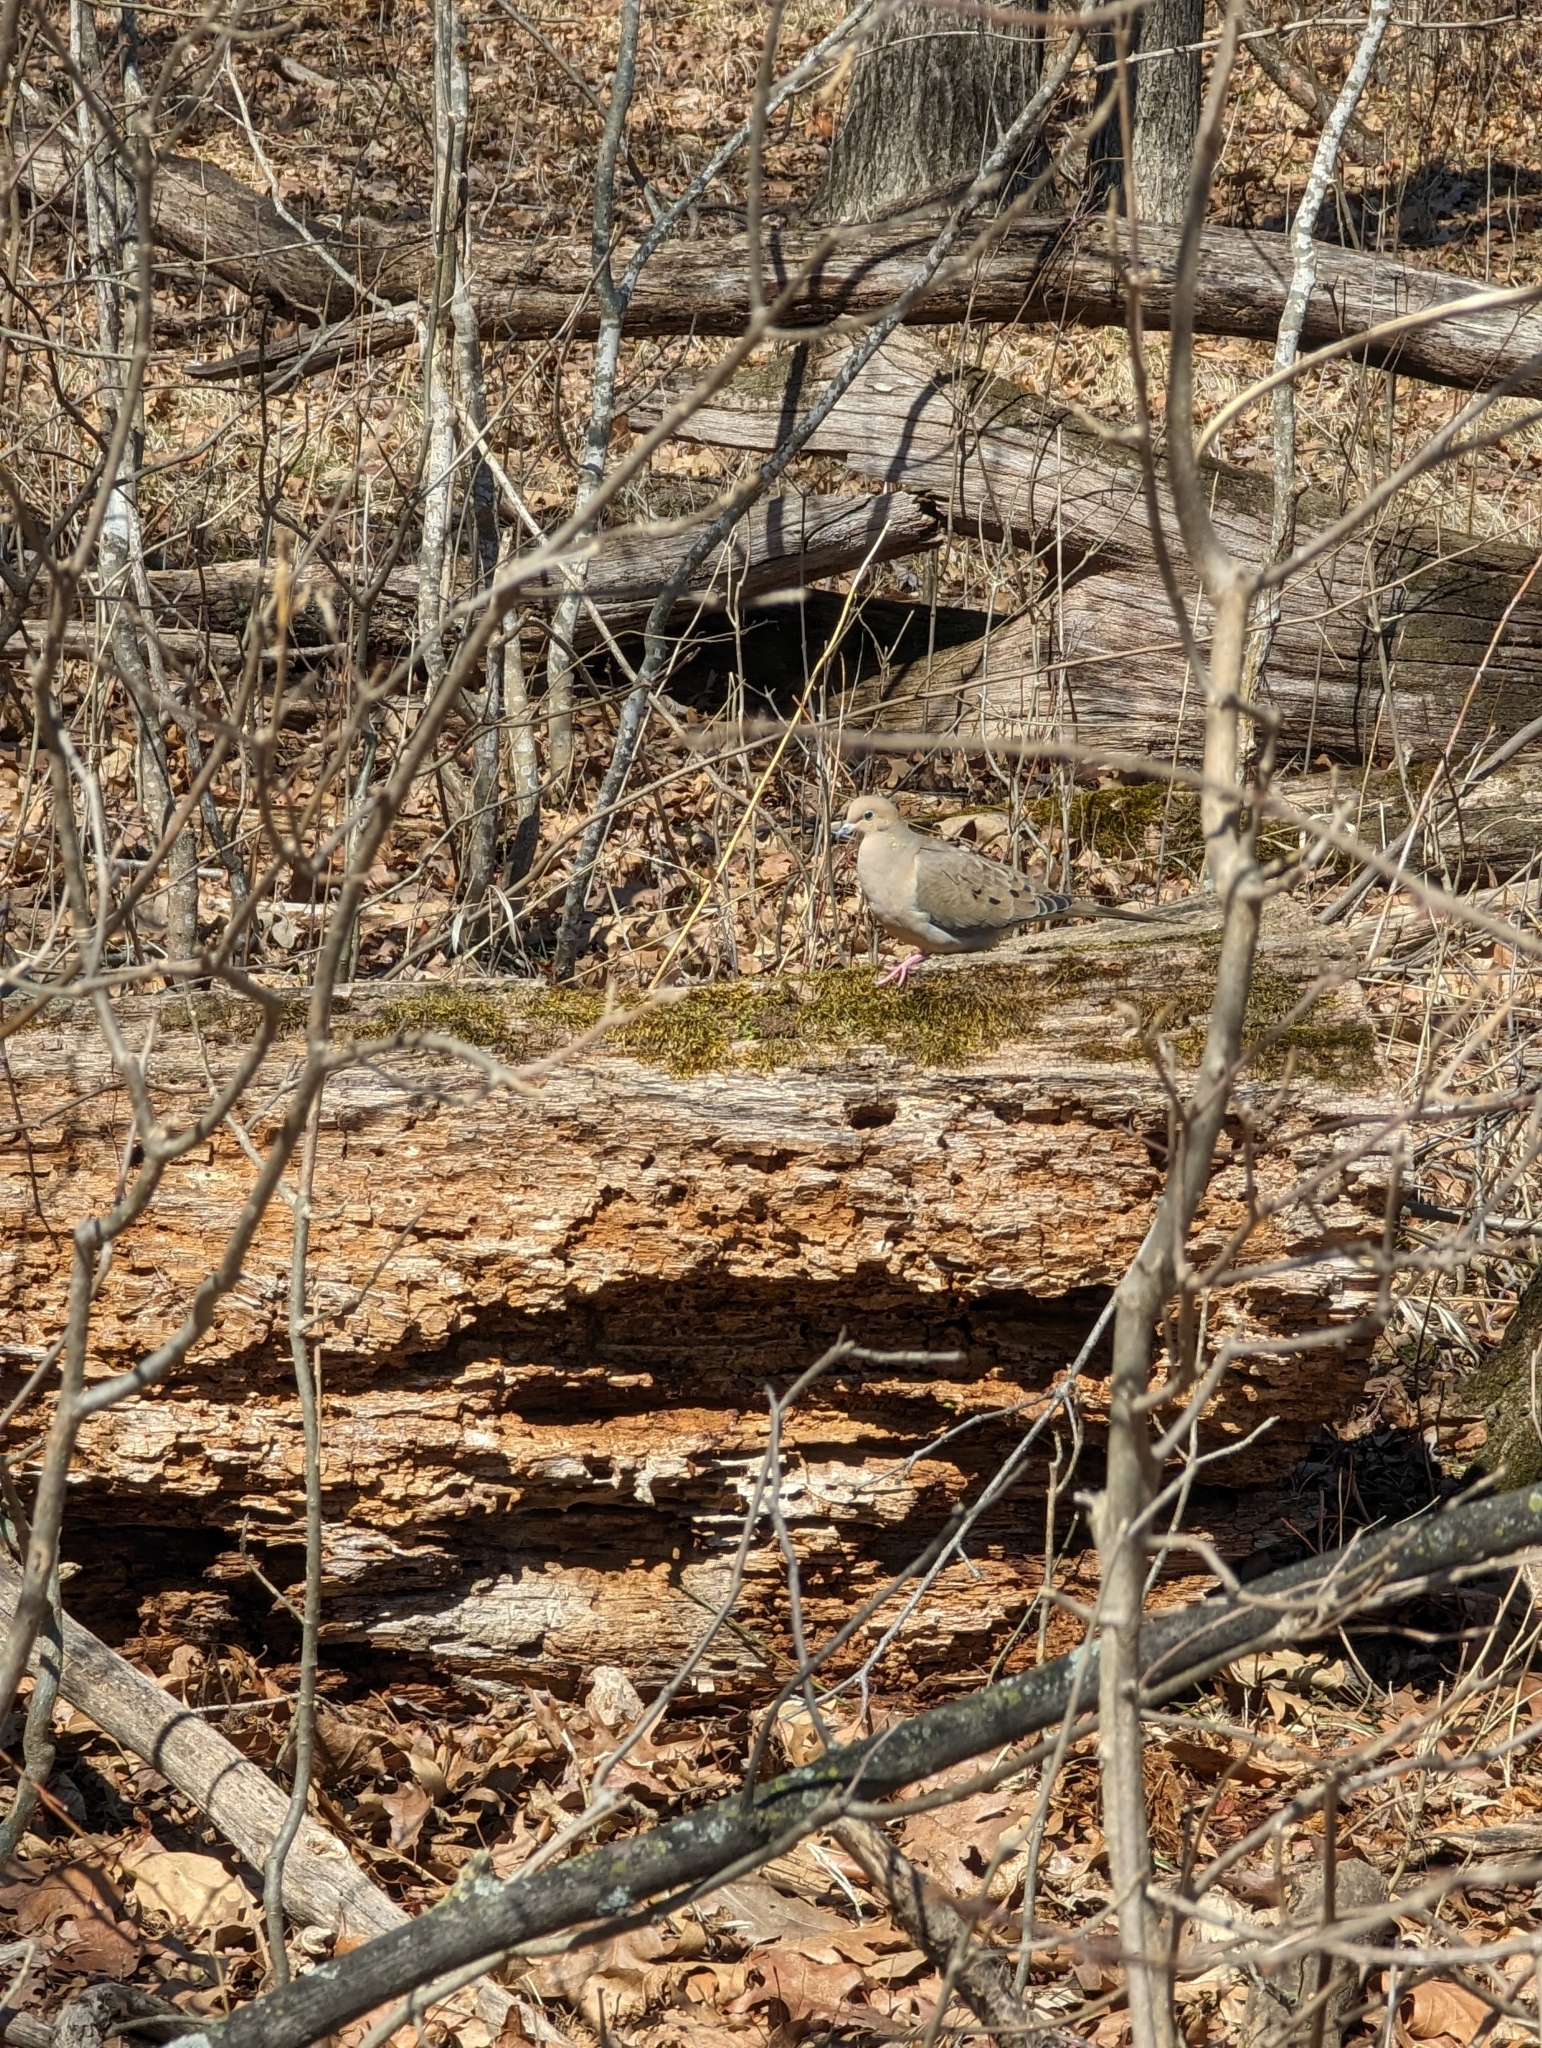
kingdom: Animalia
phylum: Chordata
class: Aves
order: Columbiformes
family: Columbidae
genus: Zenaida
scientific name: Zenaida macroura
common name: Mourning dove
